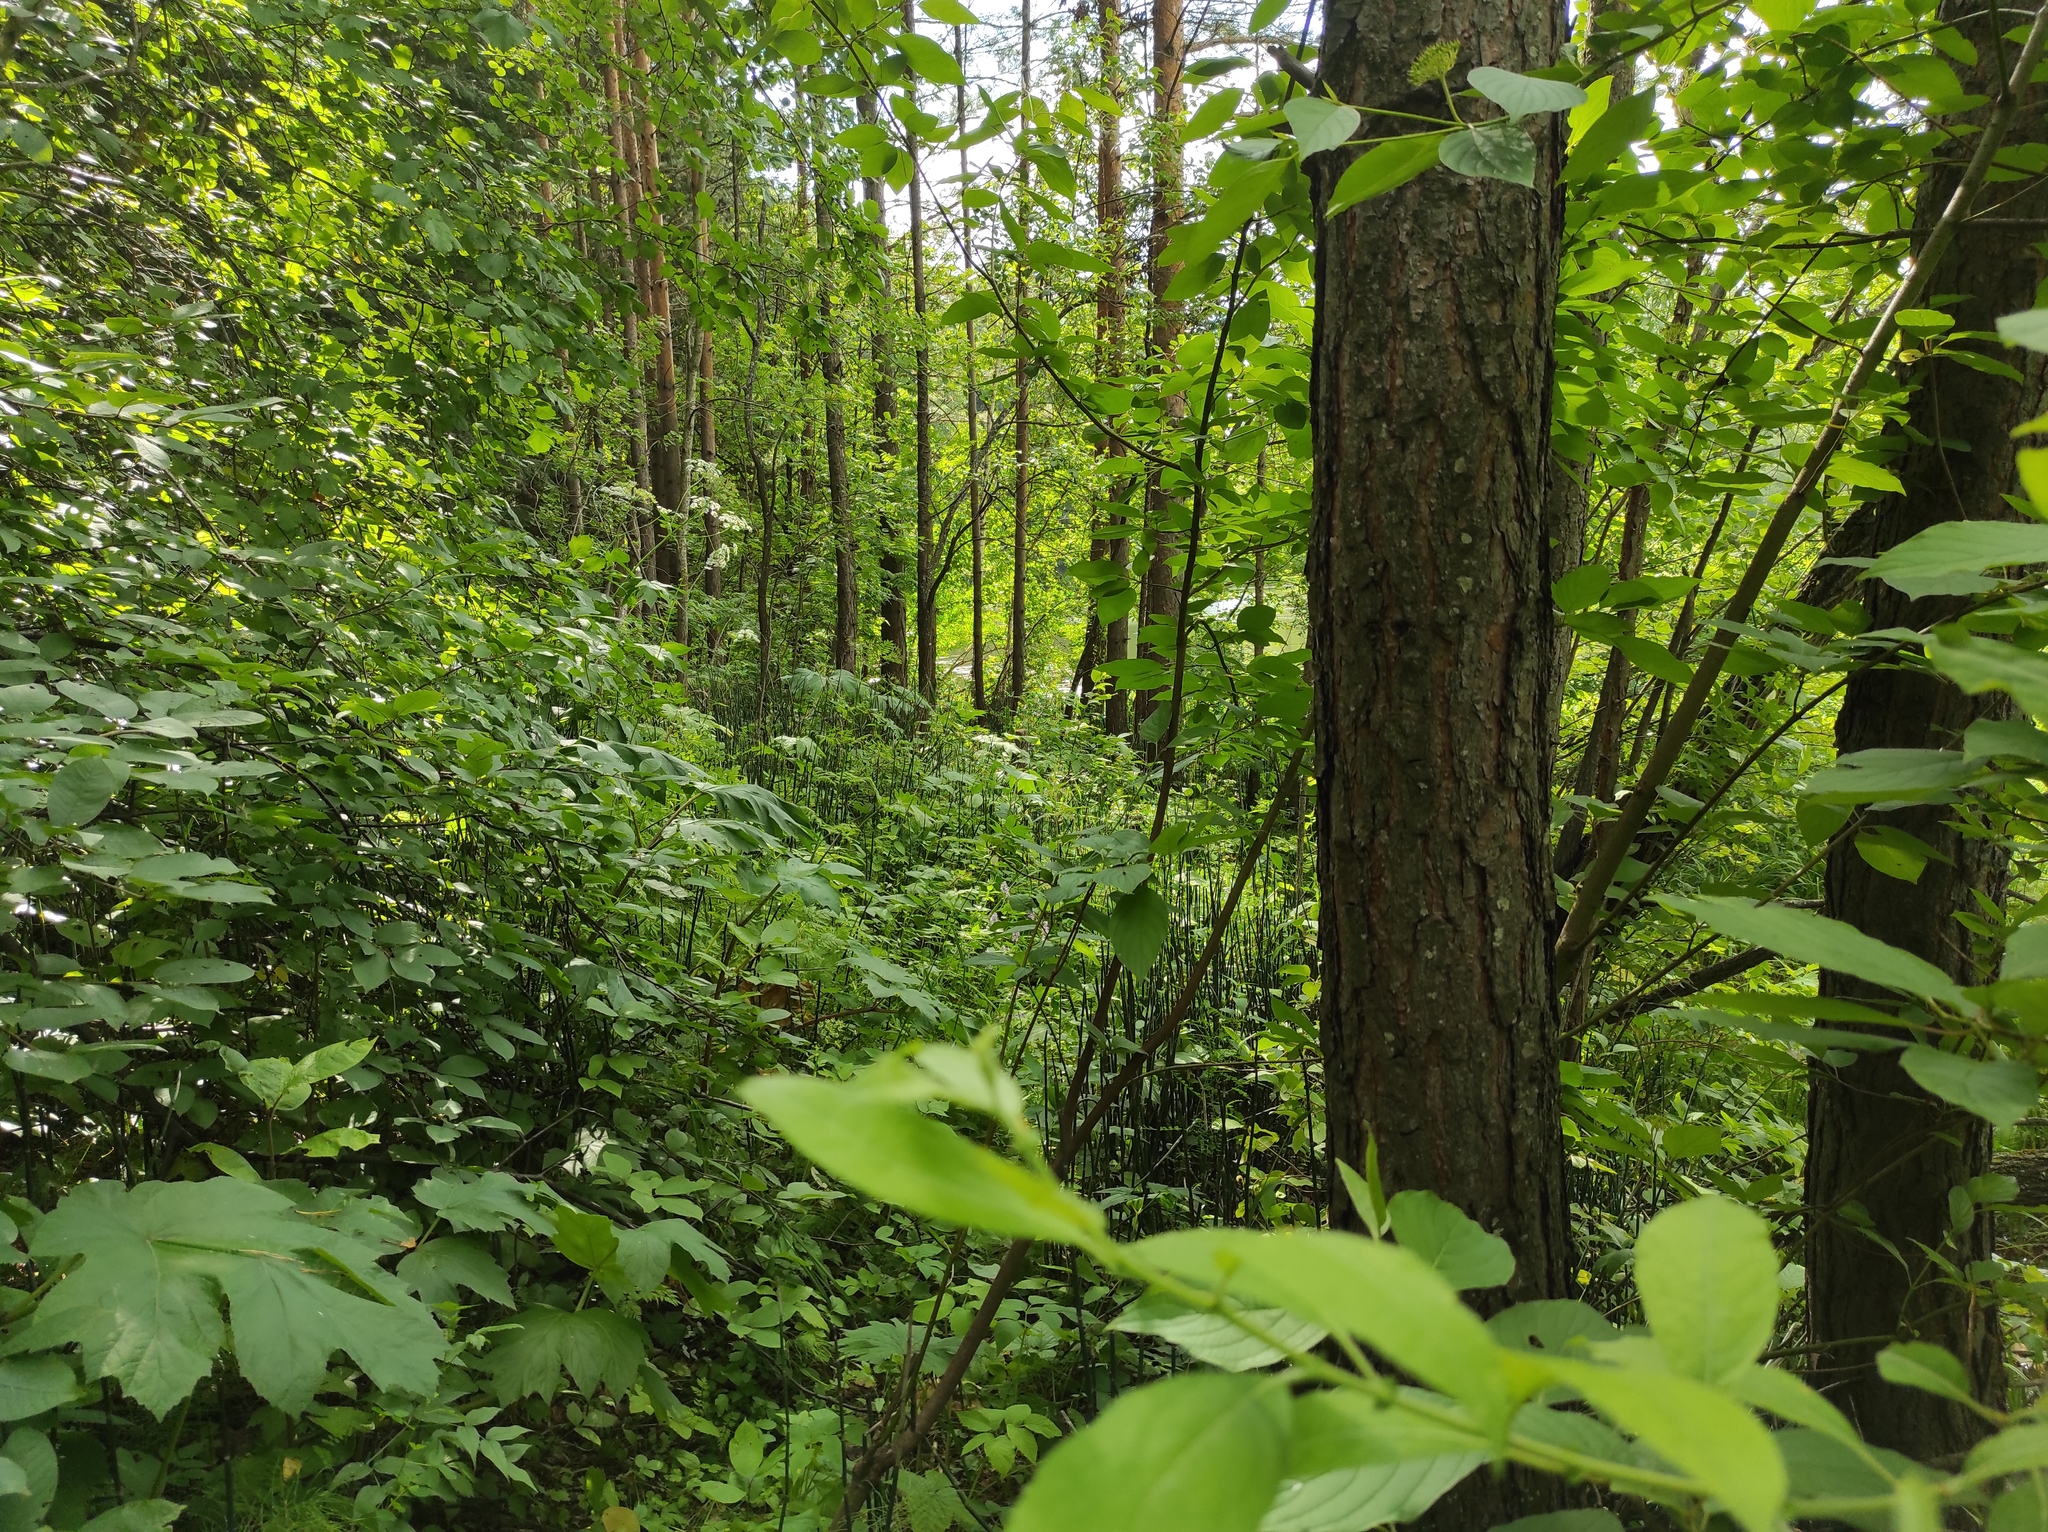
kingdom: Plantae
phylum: Tracheophyta
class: Pinopsida
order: Pinales
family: Pinaceae
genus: Pinus
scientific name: Pinus sylvestris
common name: Scots pine
